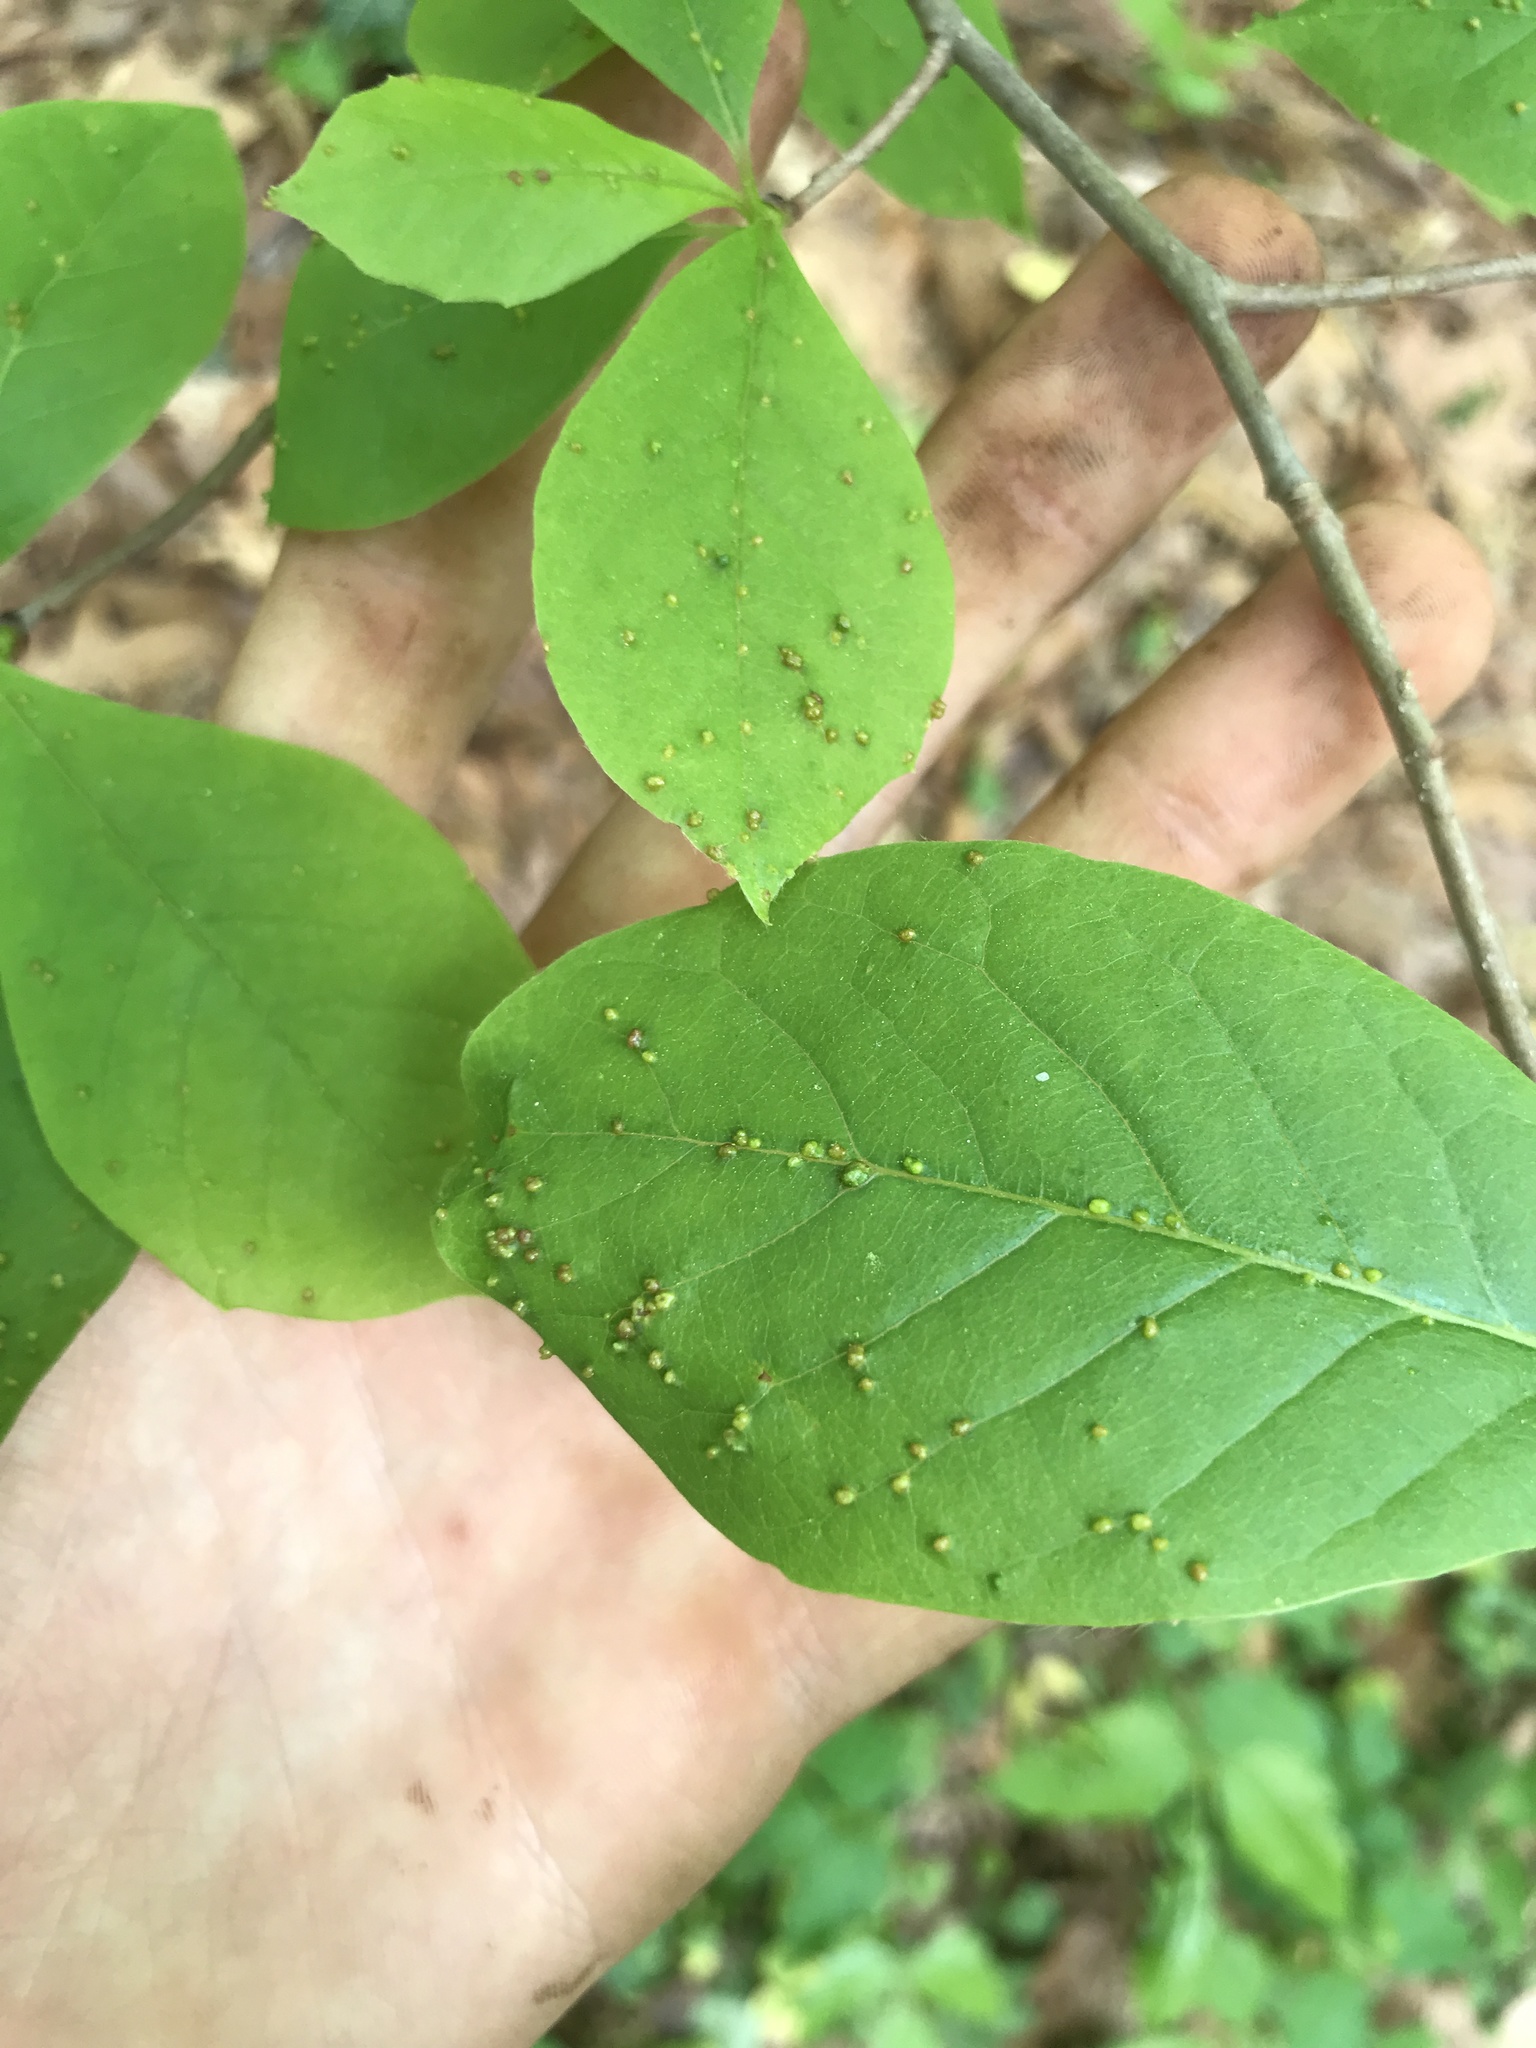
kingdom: Animalia
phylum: Arthropoda
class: Arachnida
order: Trombidiformes
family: Eriophyidae
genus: Aceria
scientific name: Aceria
